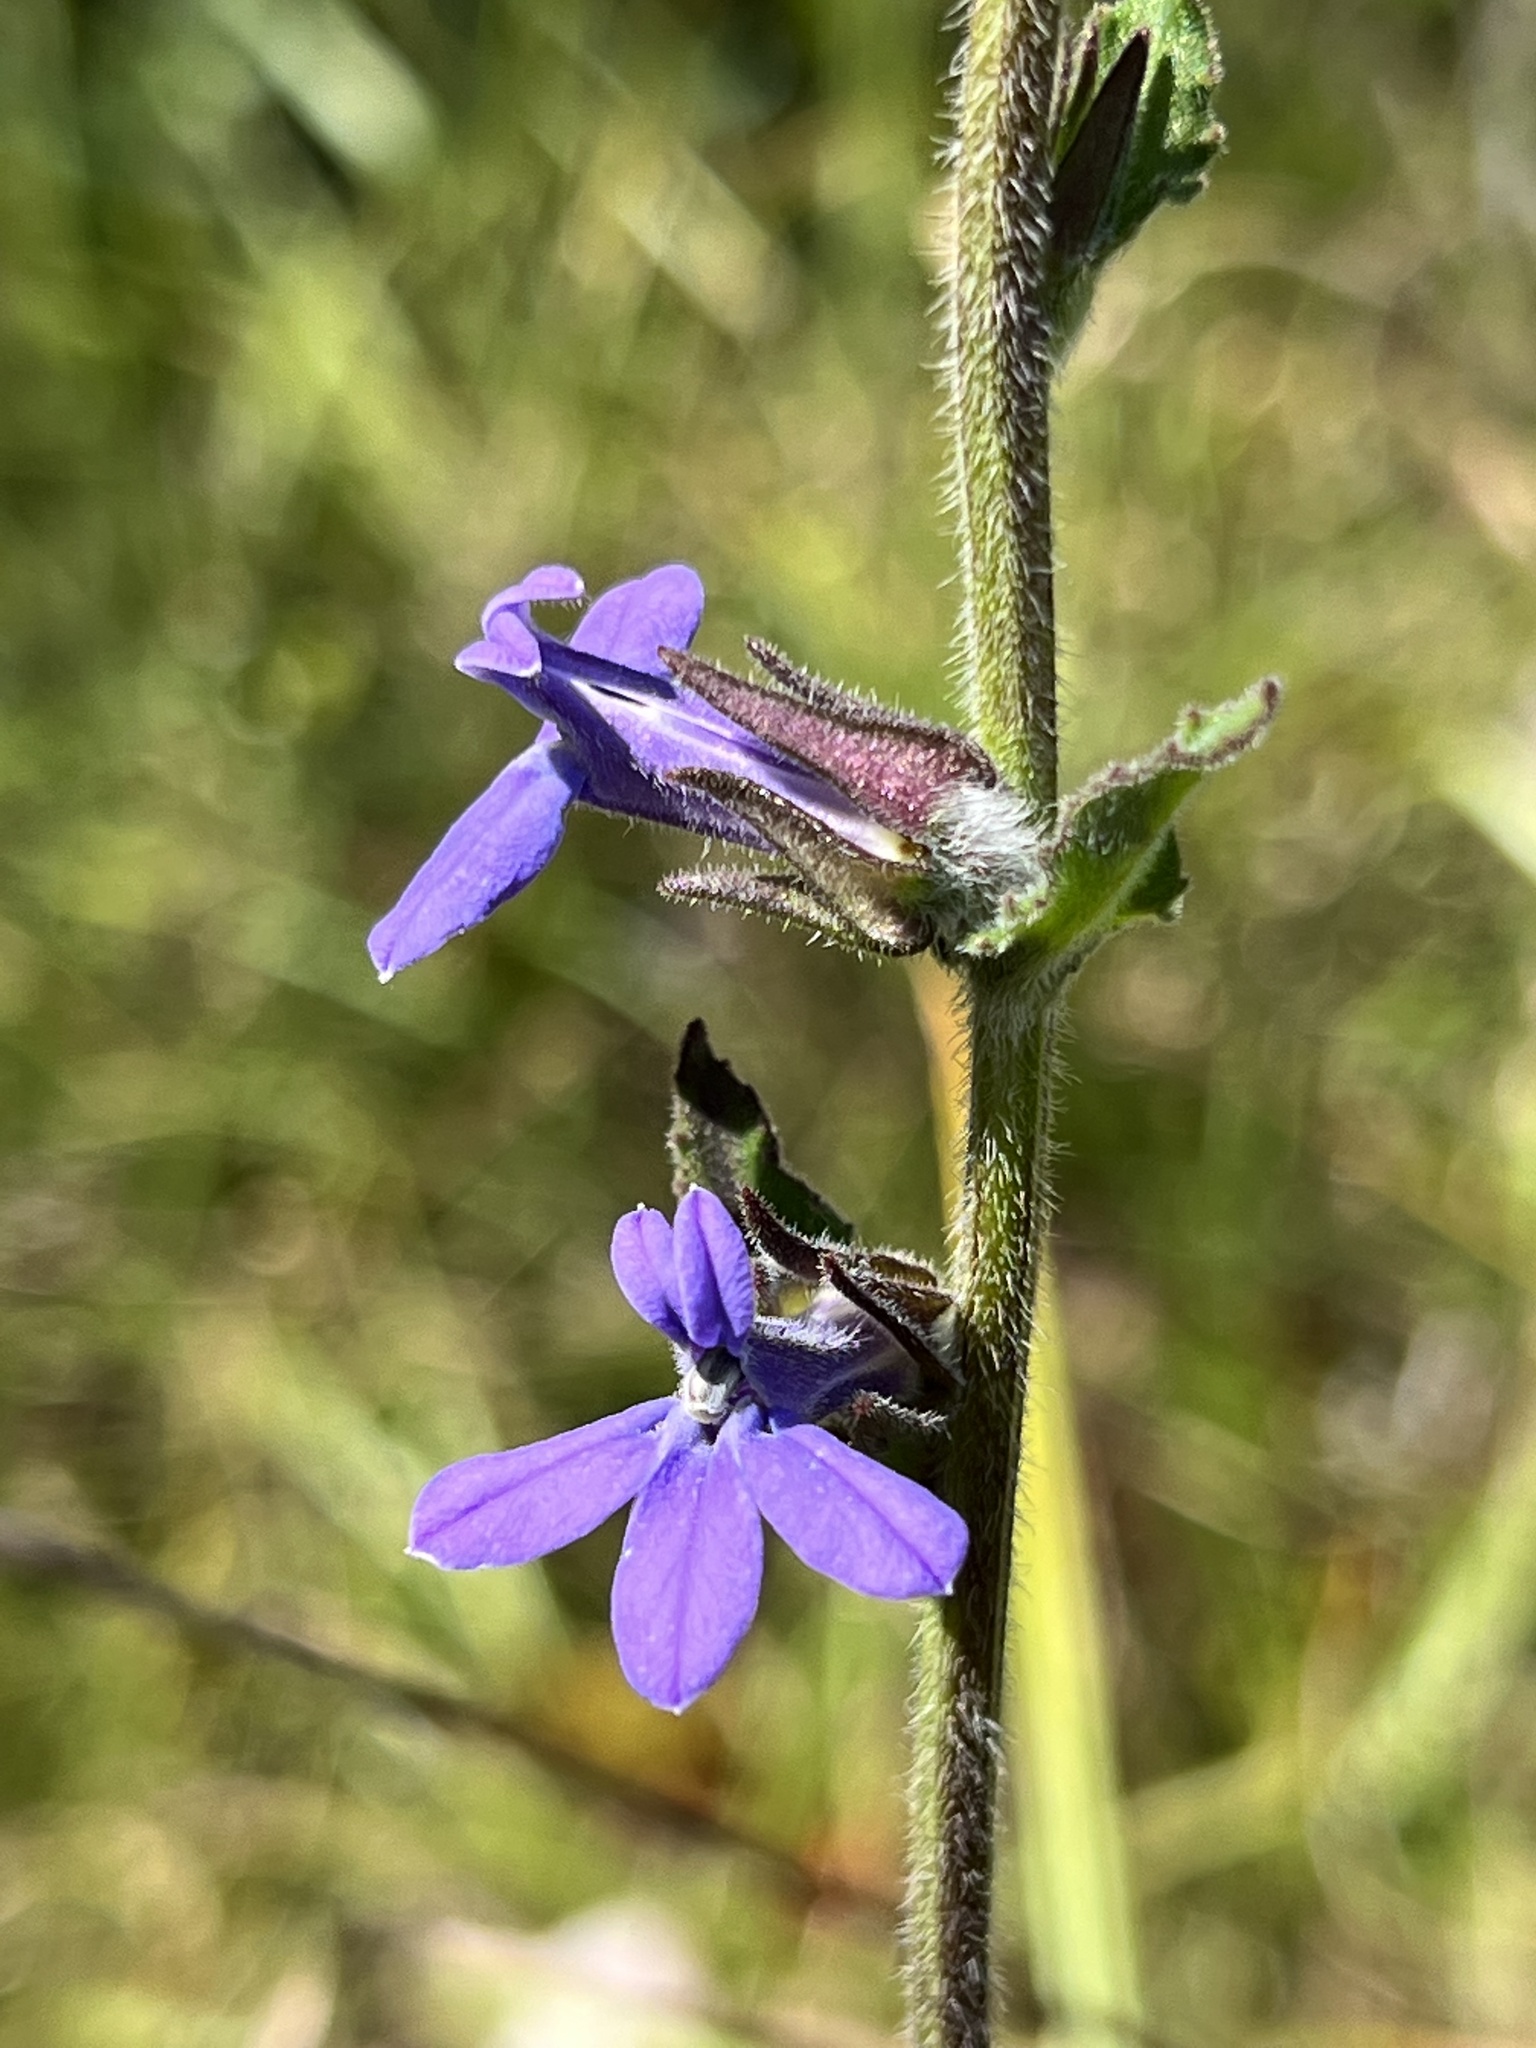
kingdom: Plantae
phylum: Tracheophyta
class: Magnoliopsida
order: Asterales
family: Campanulaceae
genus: Lobelia
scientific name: Lobelia reverchonii
